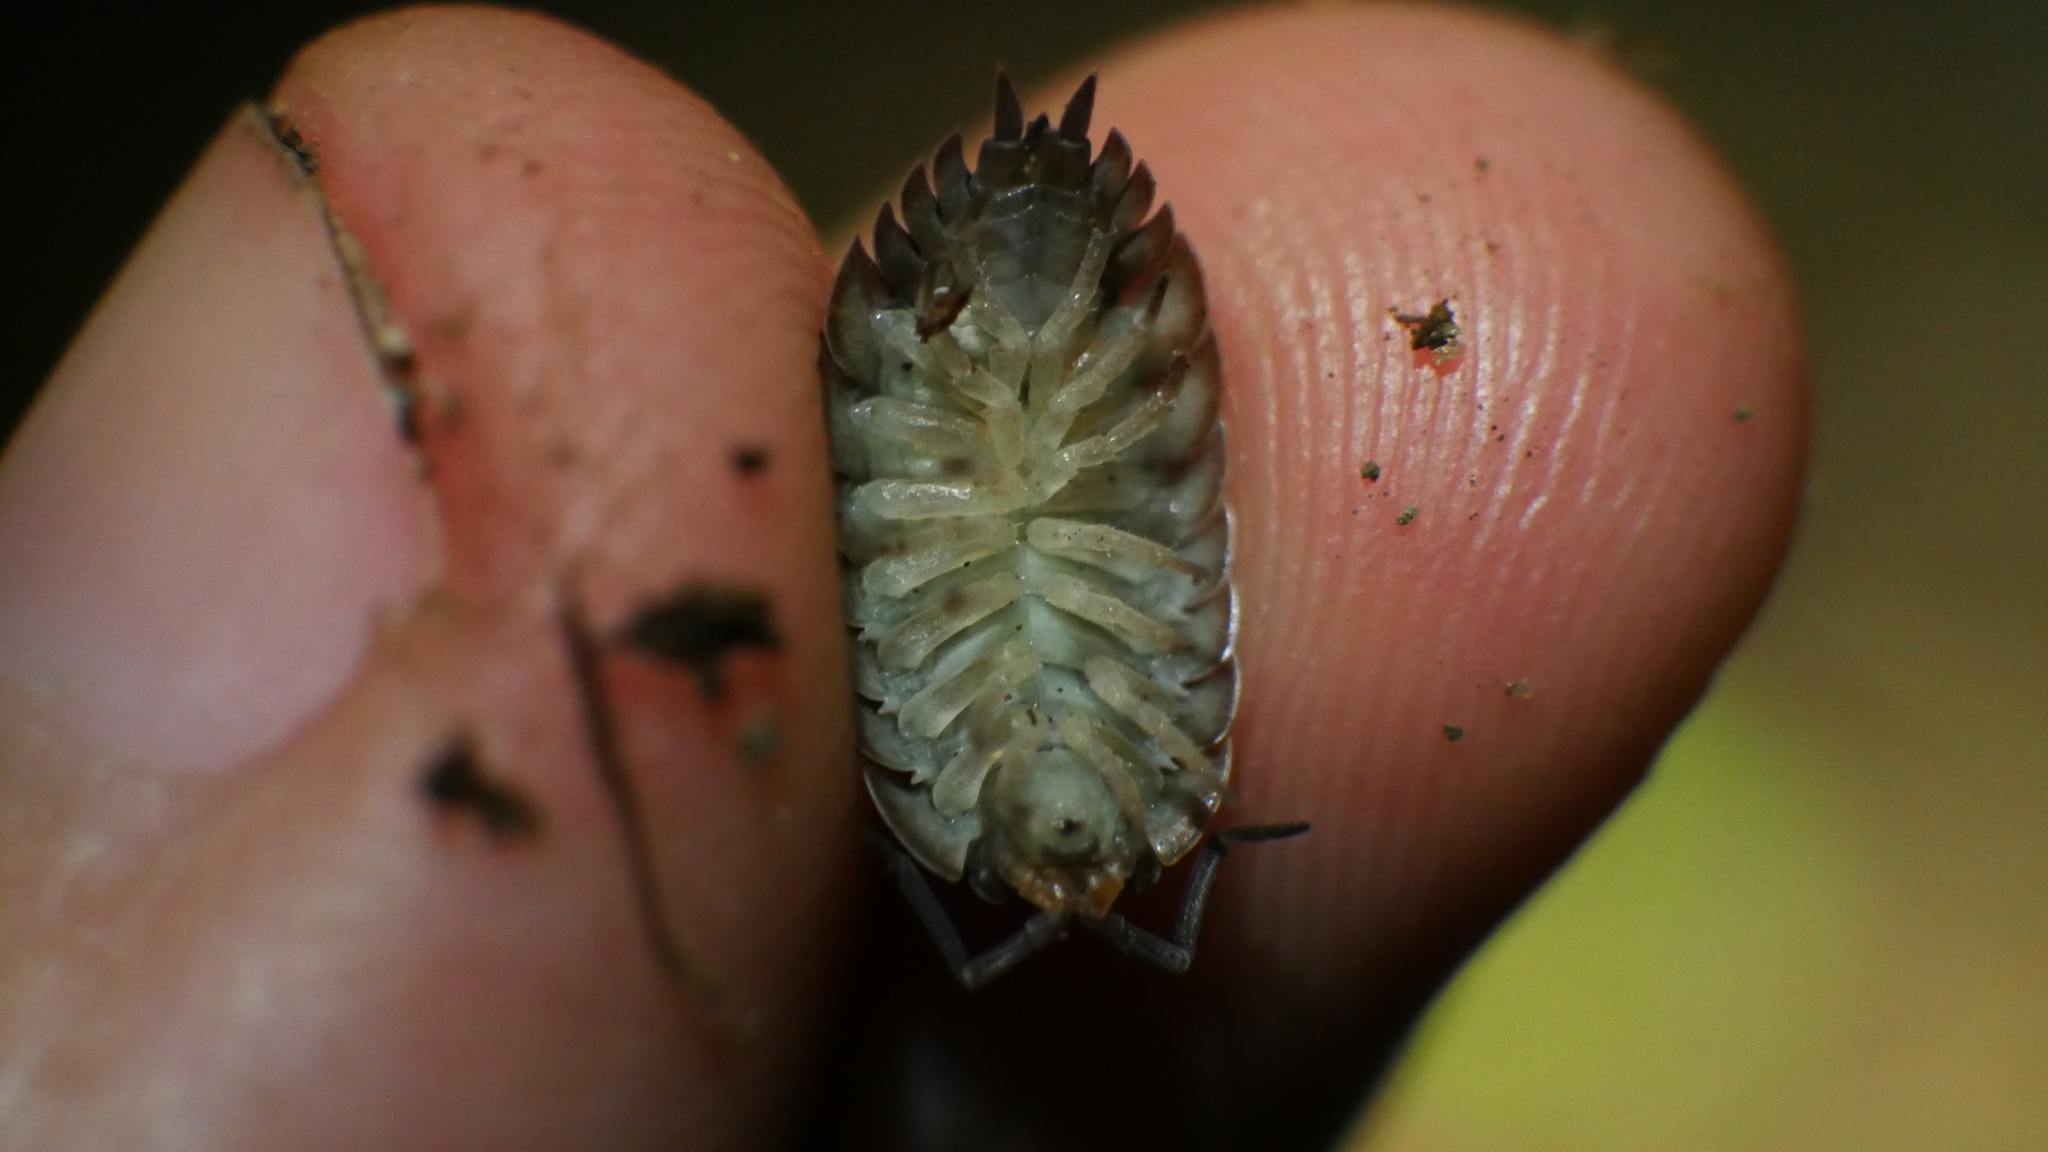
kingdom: Animalia
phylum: Arthropoda
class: Malacostraca
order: Isopoda
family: Porcellionidae
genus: Porcellio
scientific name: Porcellio scaber
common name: Common rough woodlouse
